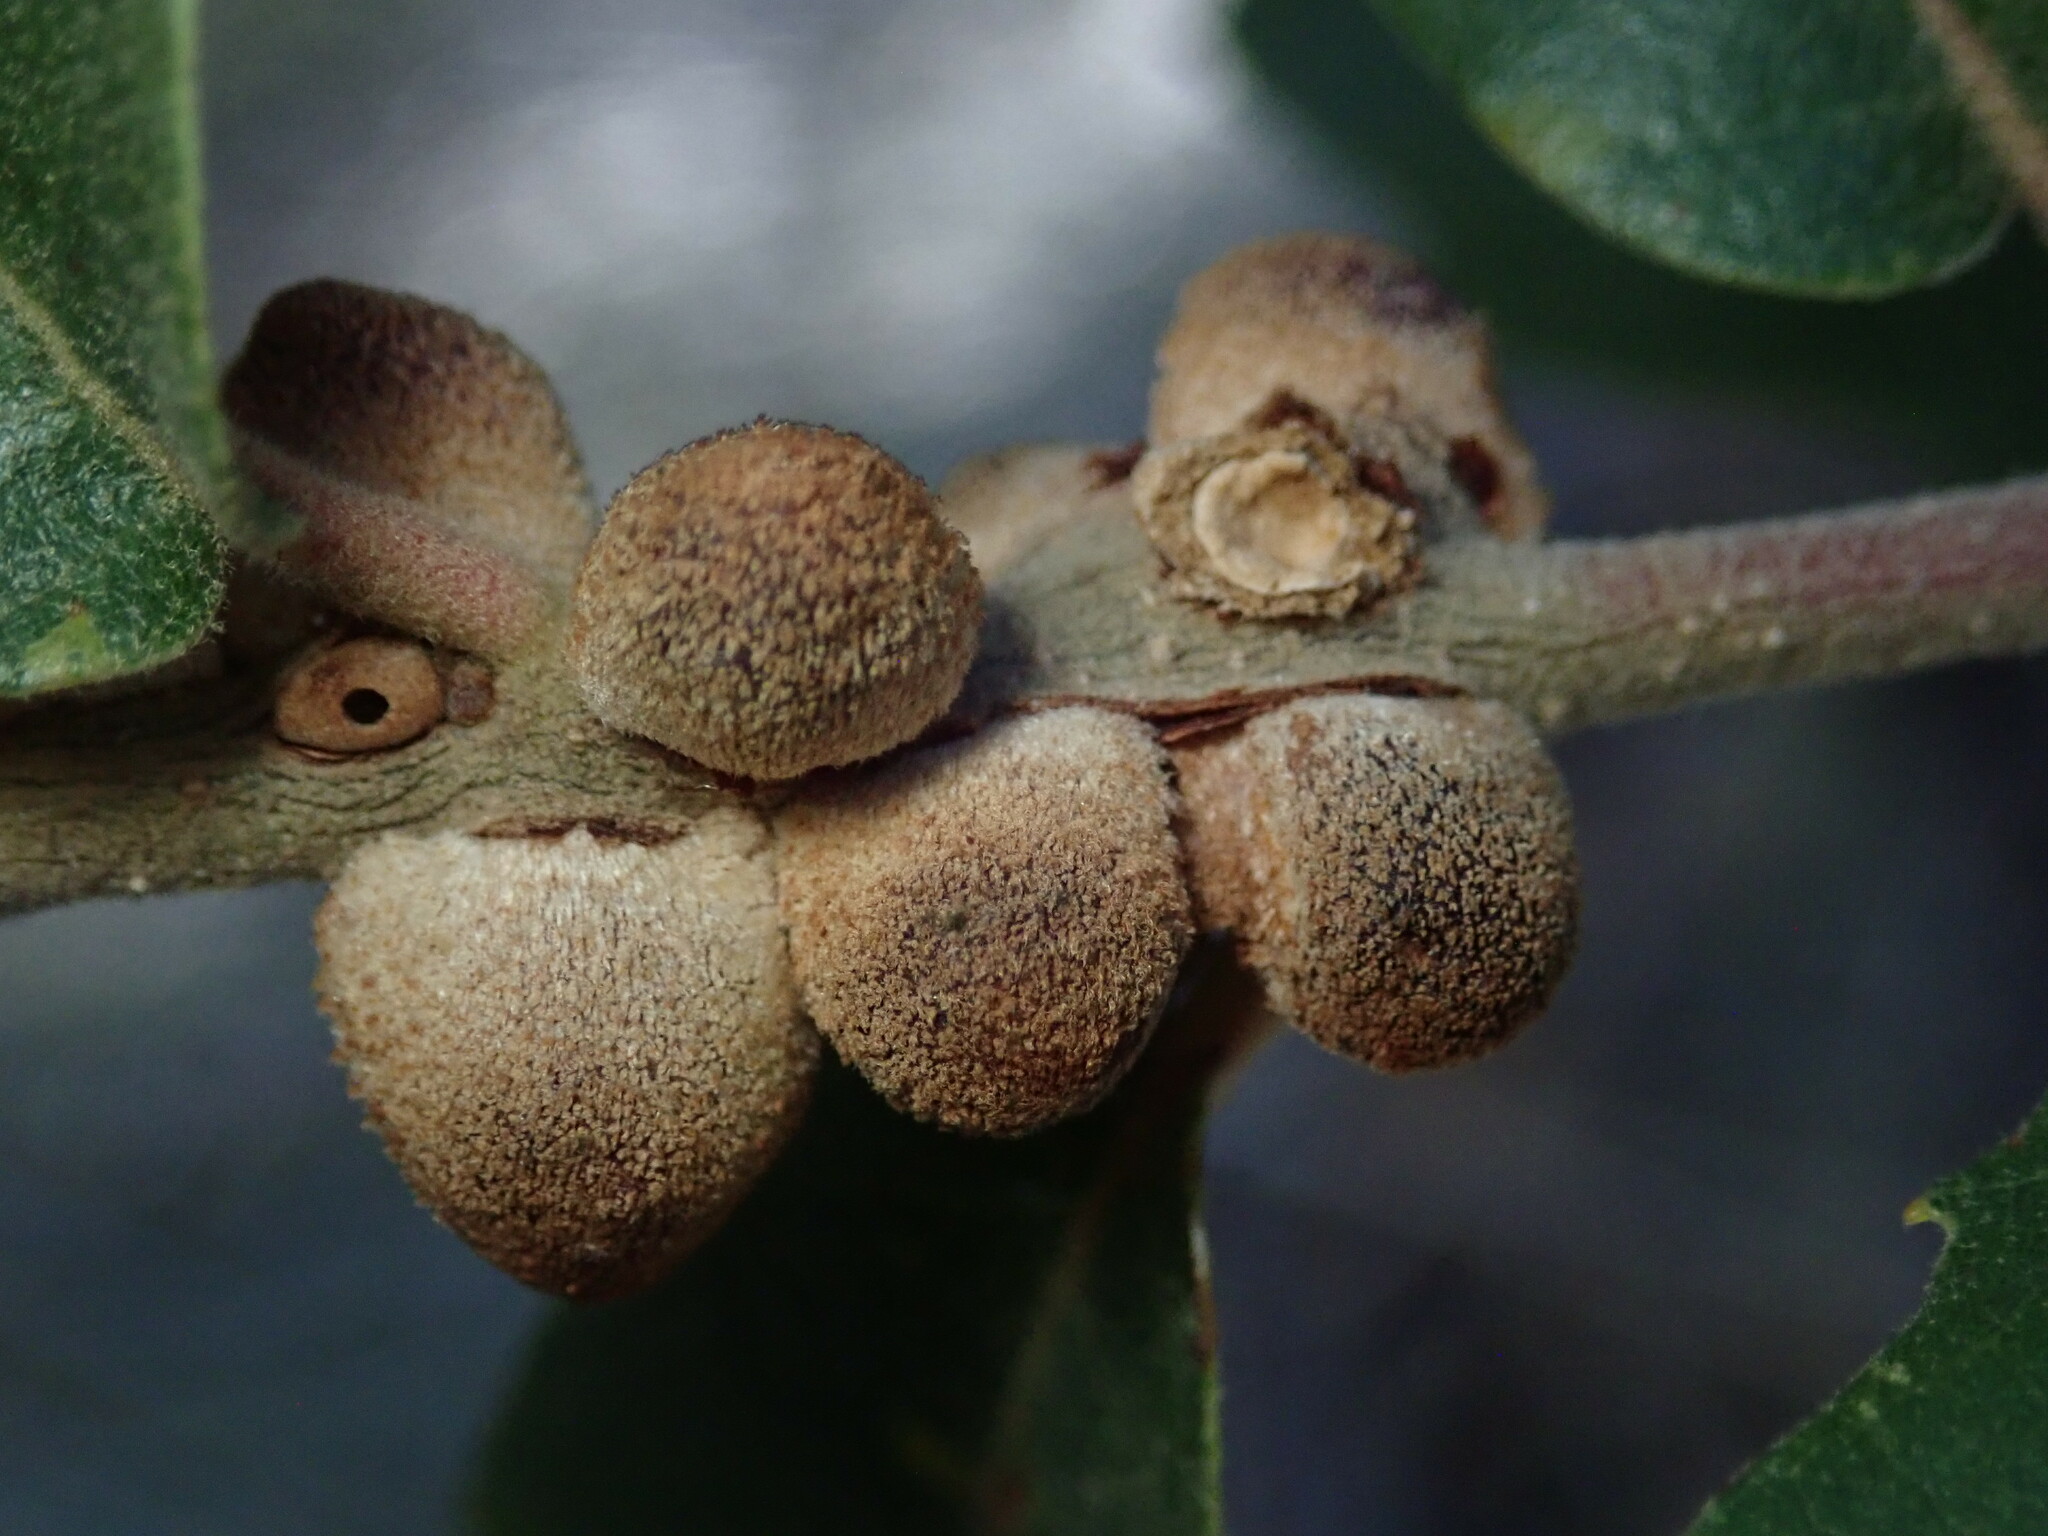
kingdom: Animalia
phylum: Arthropoda
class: Insecta
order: Hymenoptera
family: Cynipidae
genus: Disholcaspis
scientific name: Disholcaspis
